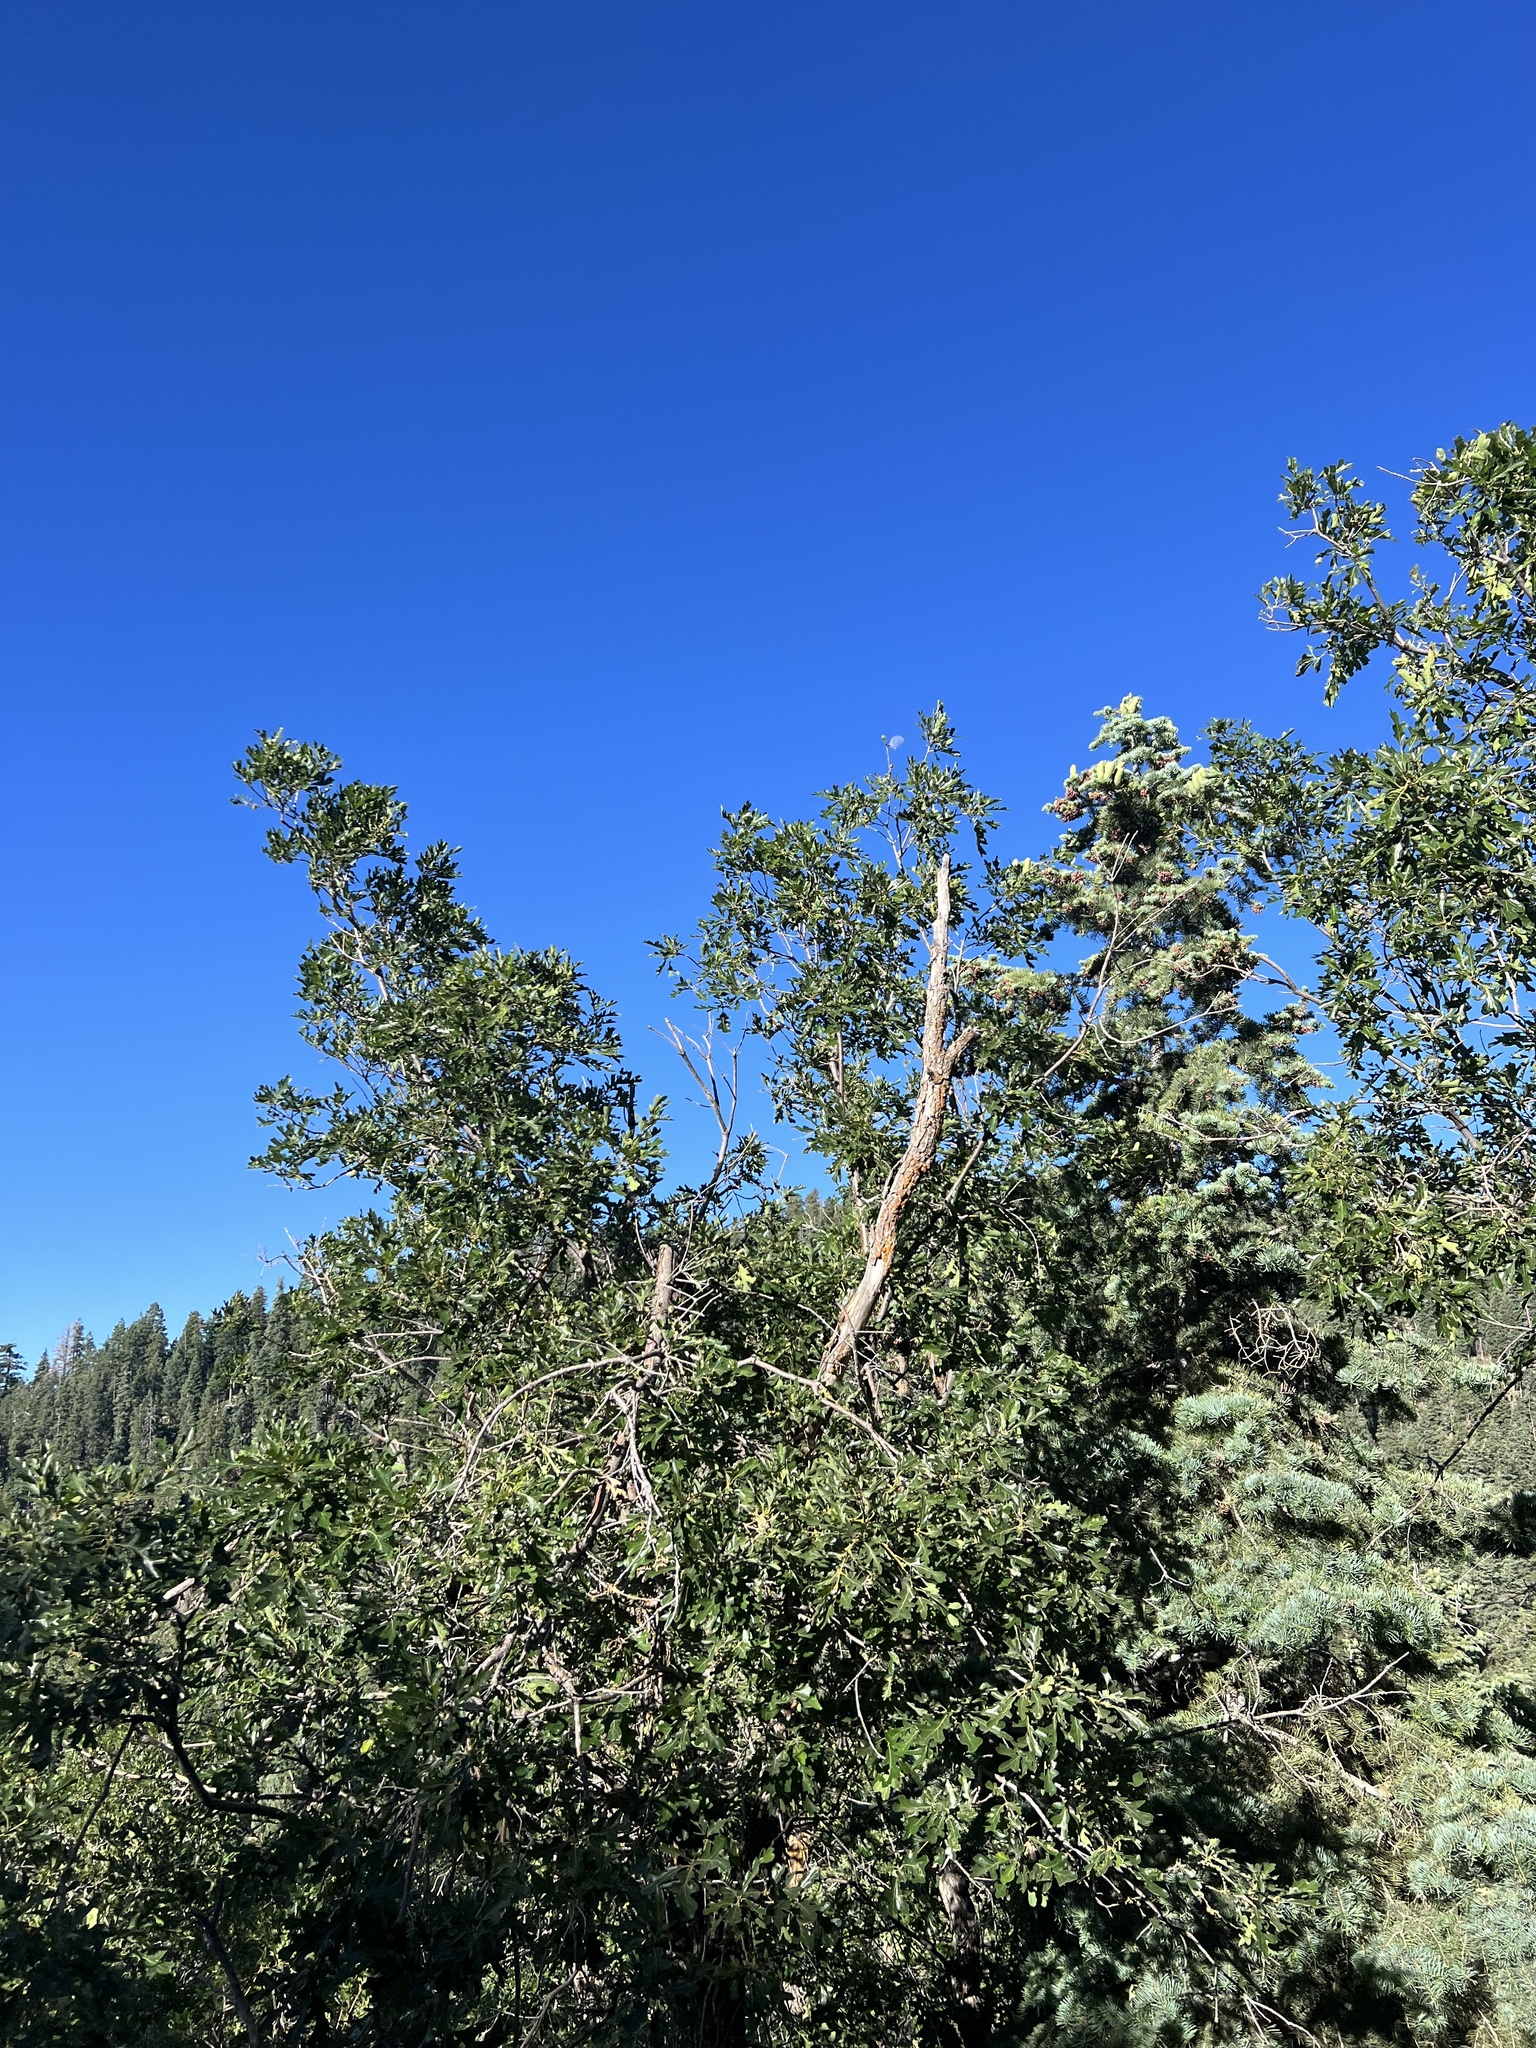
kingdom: Plantae
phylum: Tracheophyta
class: Magnoliopsida
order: Fagales
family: Fagaceae
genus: Quercus
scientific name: Quercus gambelii
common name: Gambel oak
